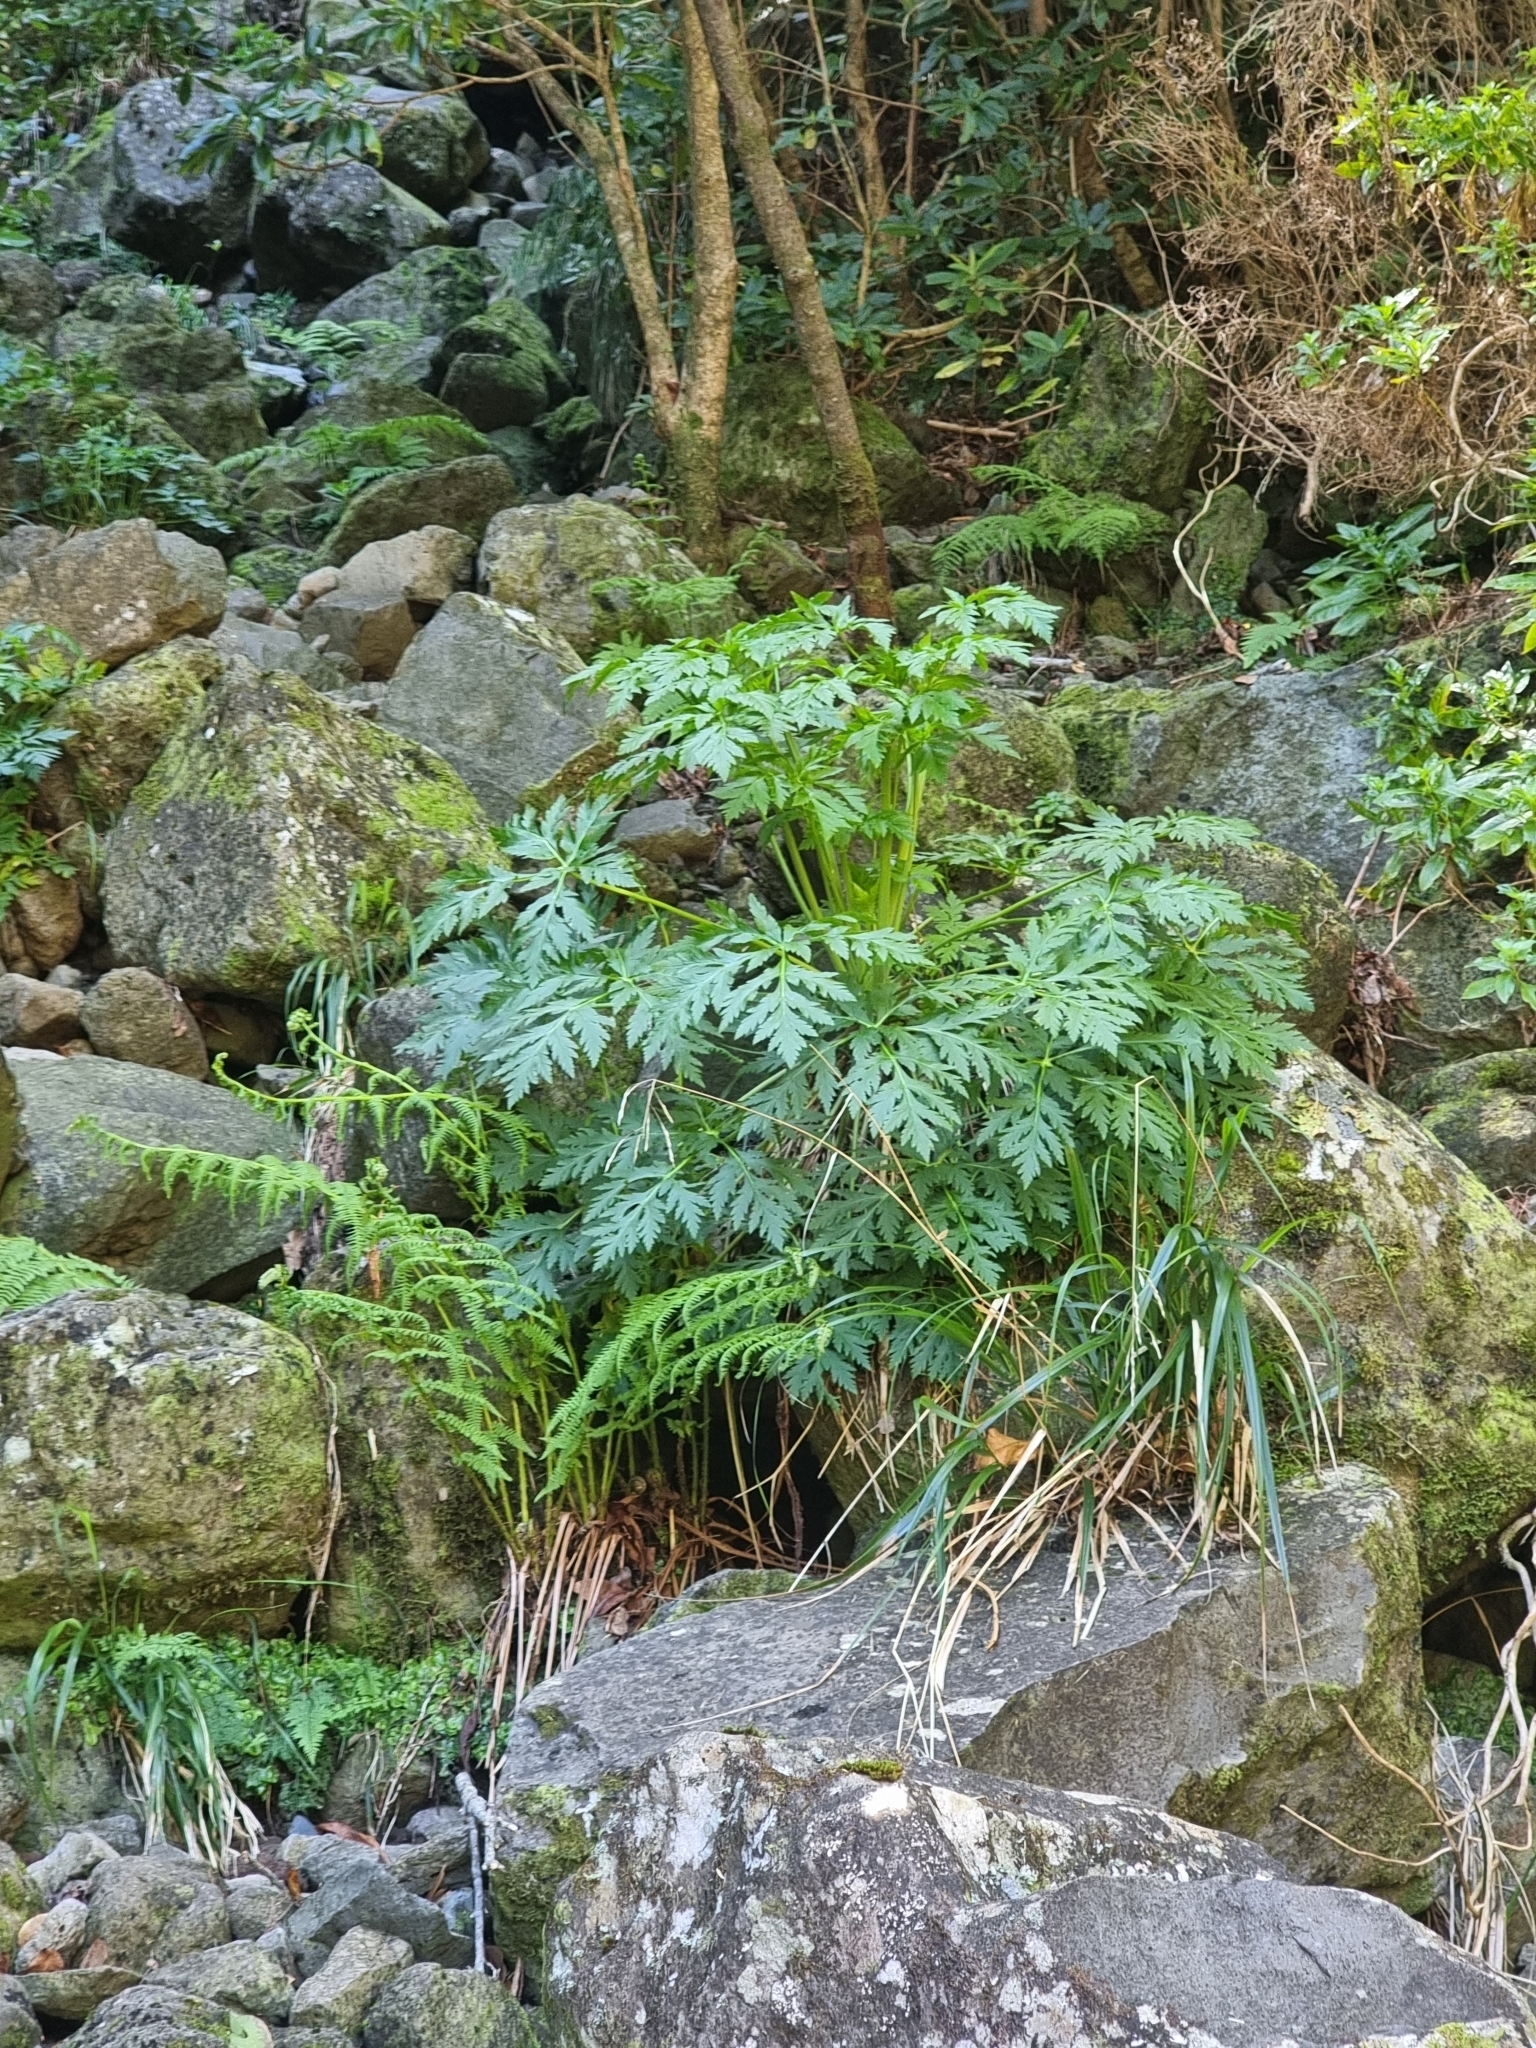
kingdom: Plantae
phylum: Tracheophyta
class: Magnoliopsida
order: Geraniales
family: Geraniaceae
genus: Geranium
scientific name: Geranium palmatum
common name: Canary island geranium
